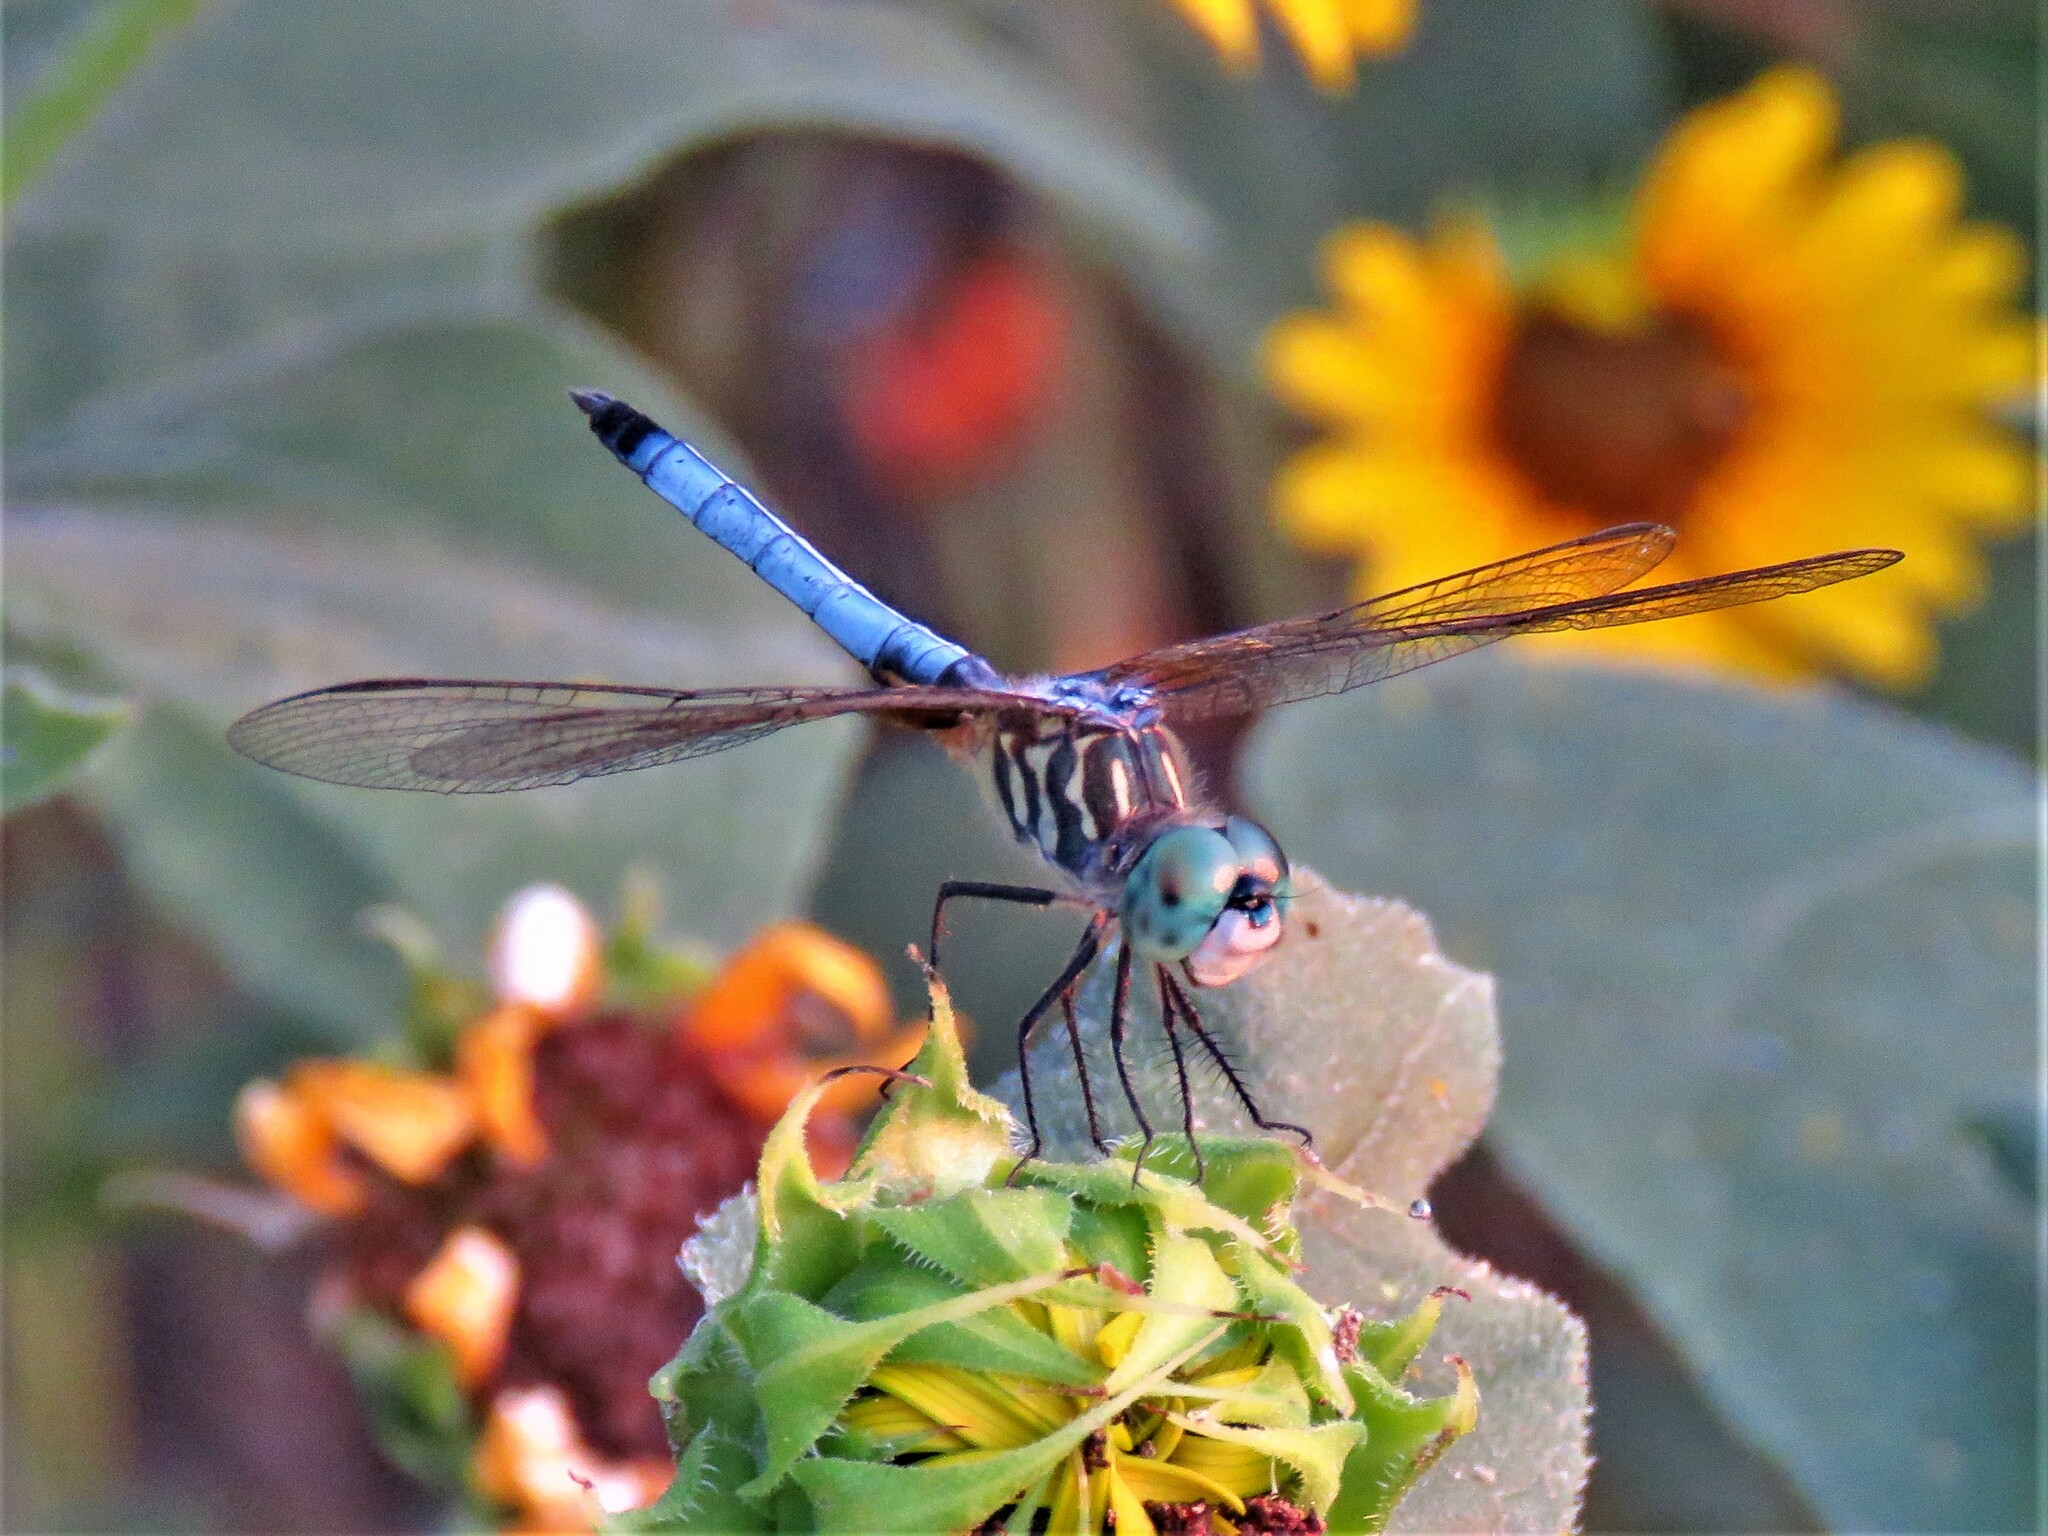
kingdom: Animalia
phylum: Arthropoda
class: Insecta
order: Odonata
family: Libellulidae
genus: Pachydiplax
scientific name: Pachydiplax longipennis
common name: Blue dasher
